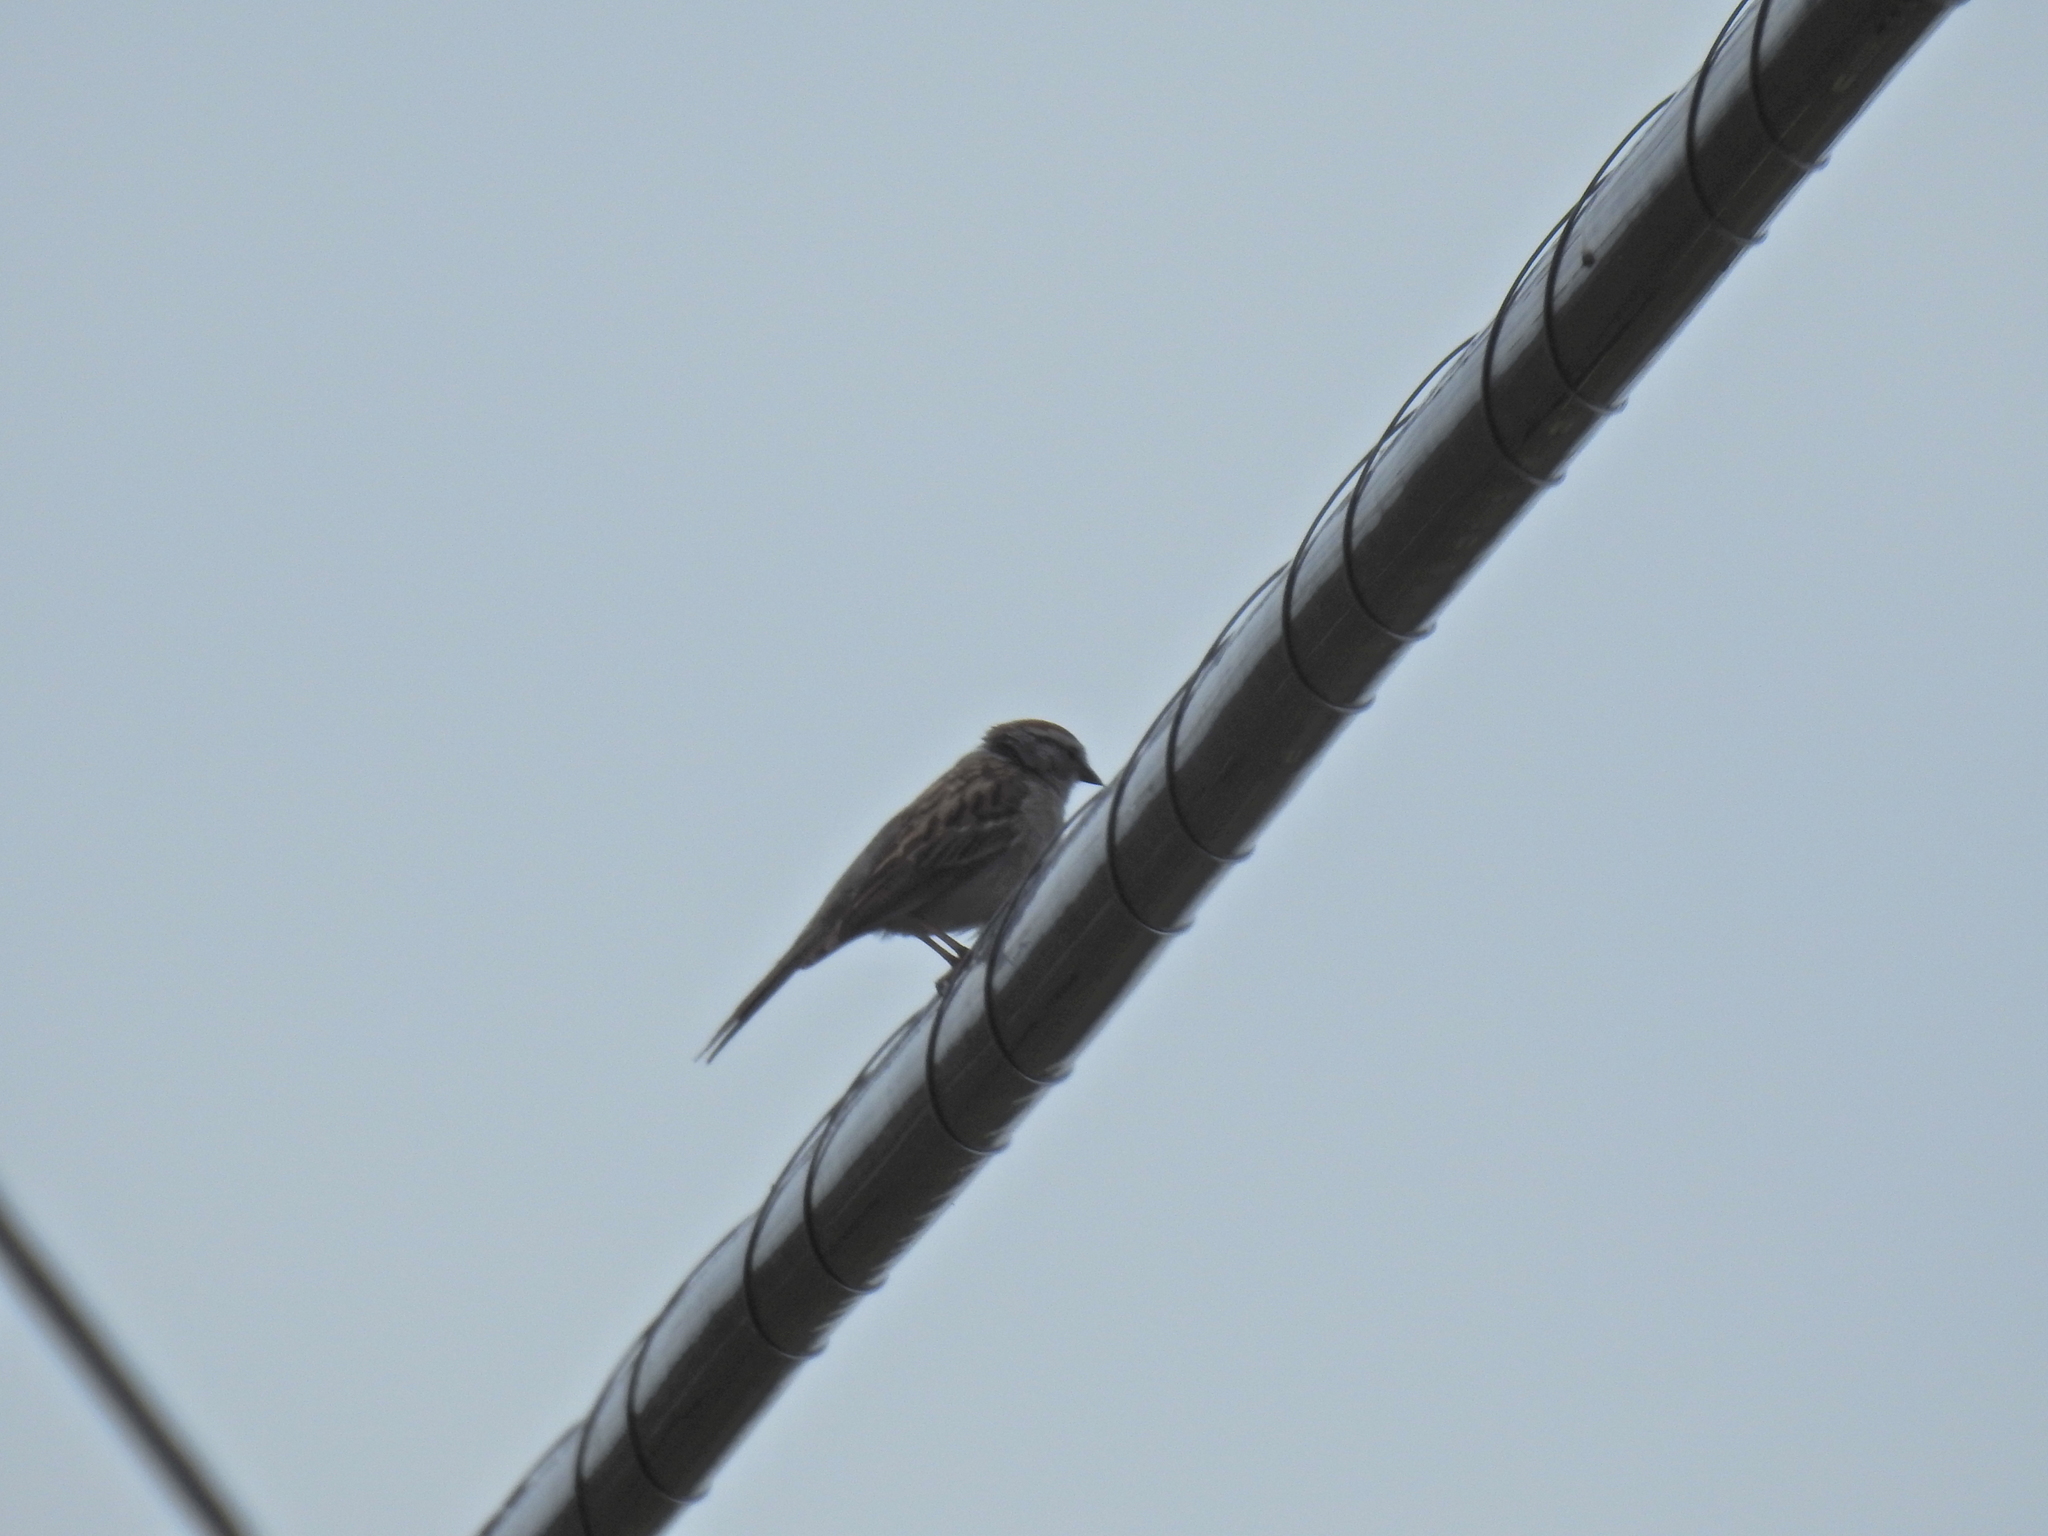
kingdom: Animalia
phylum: Chordata
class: Aves
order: Passeriformes
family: Passerellidae
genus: Spizella
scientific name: Spizella passerina
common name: Chipping sparrow
